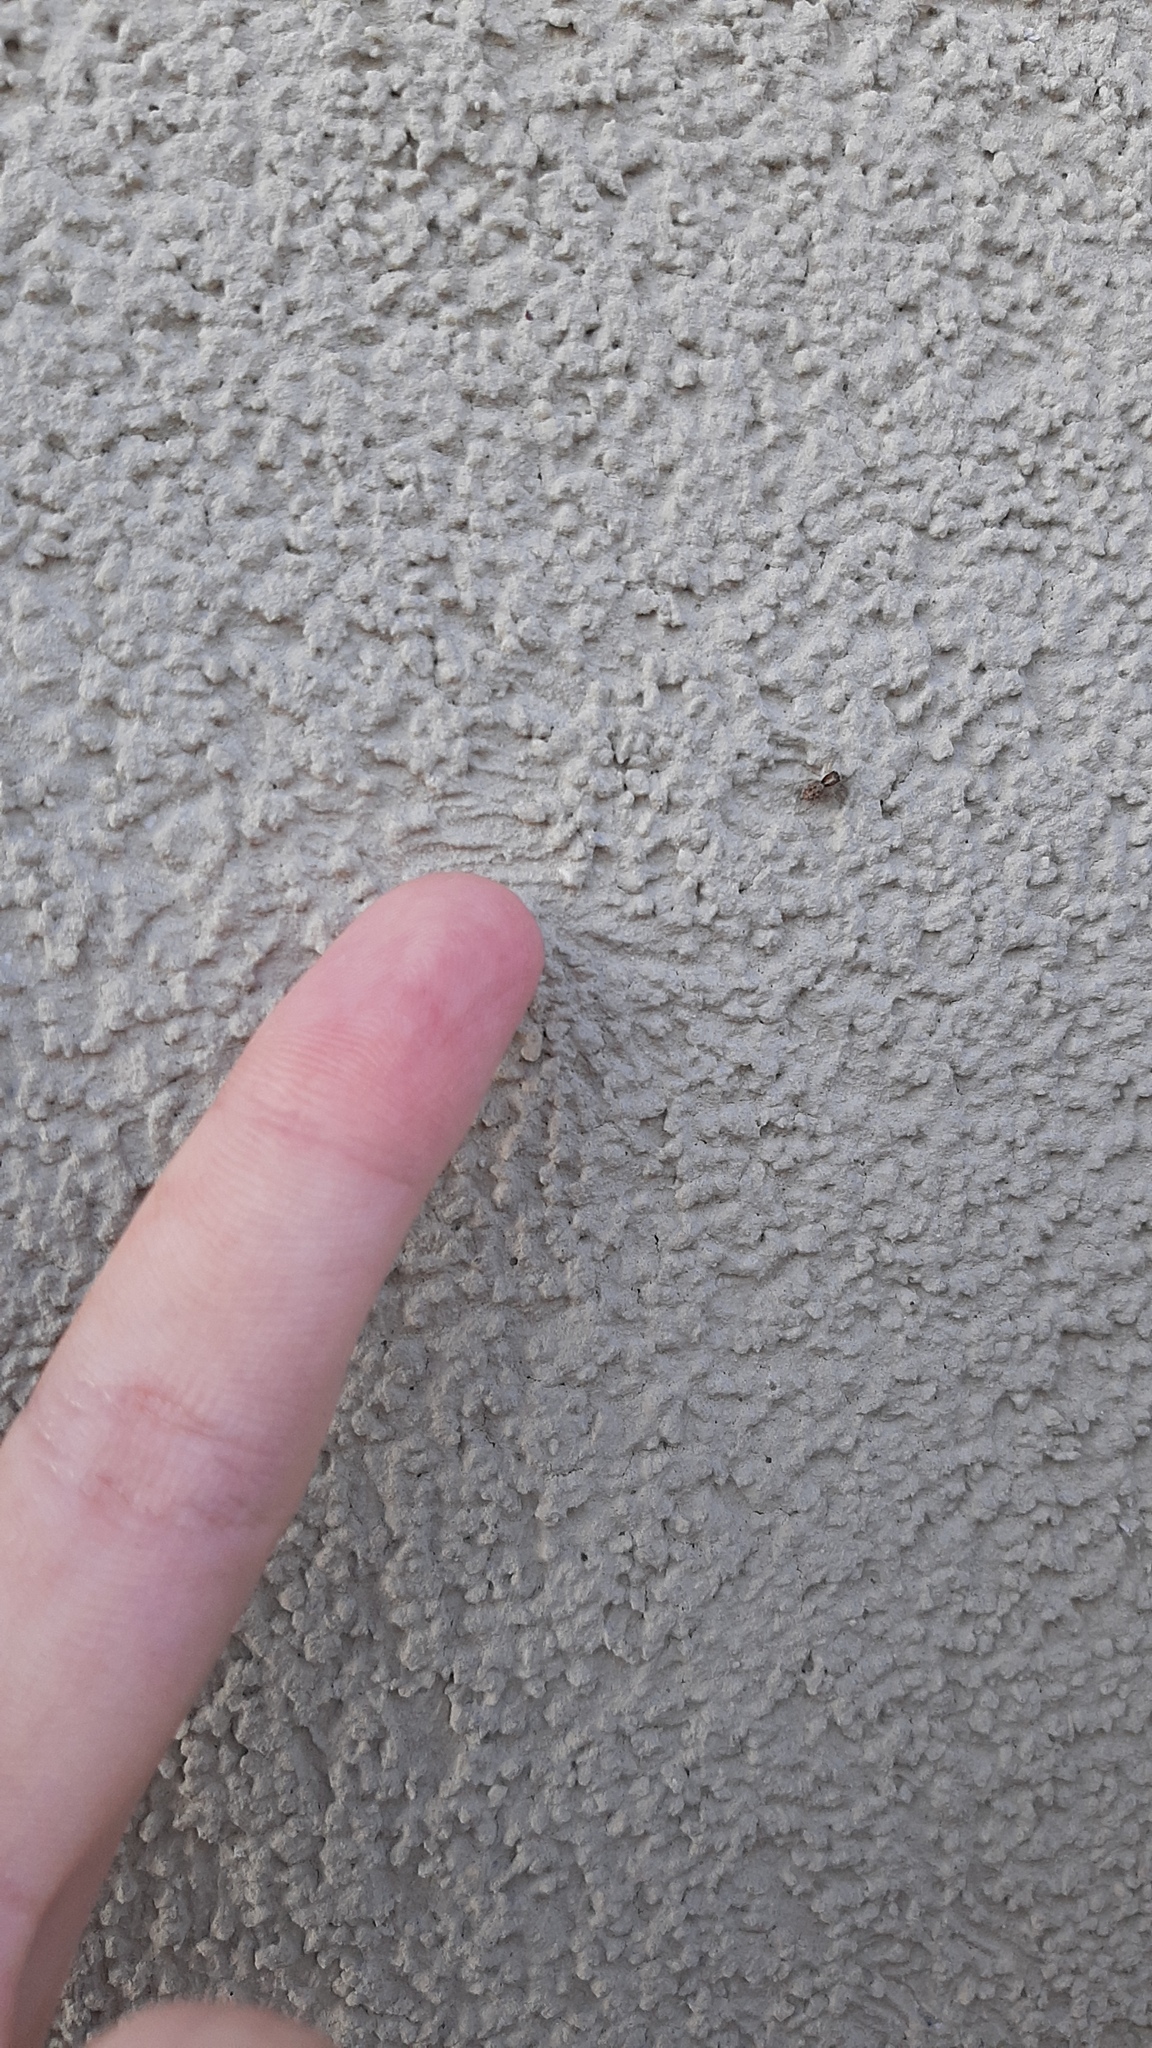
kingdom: Animalia
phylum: Arthropoda
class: Arachnida
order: Araneae
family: Salticidae
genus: Menemerus
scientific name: Menemerus semilimbatus
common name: Jumping spider
